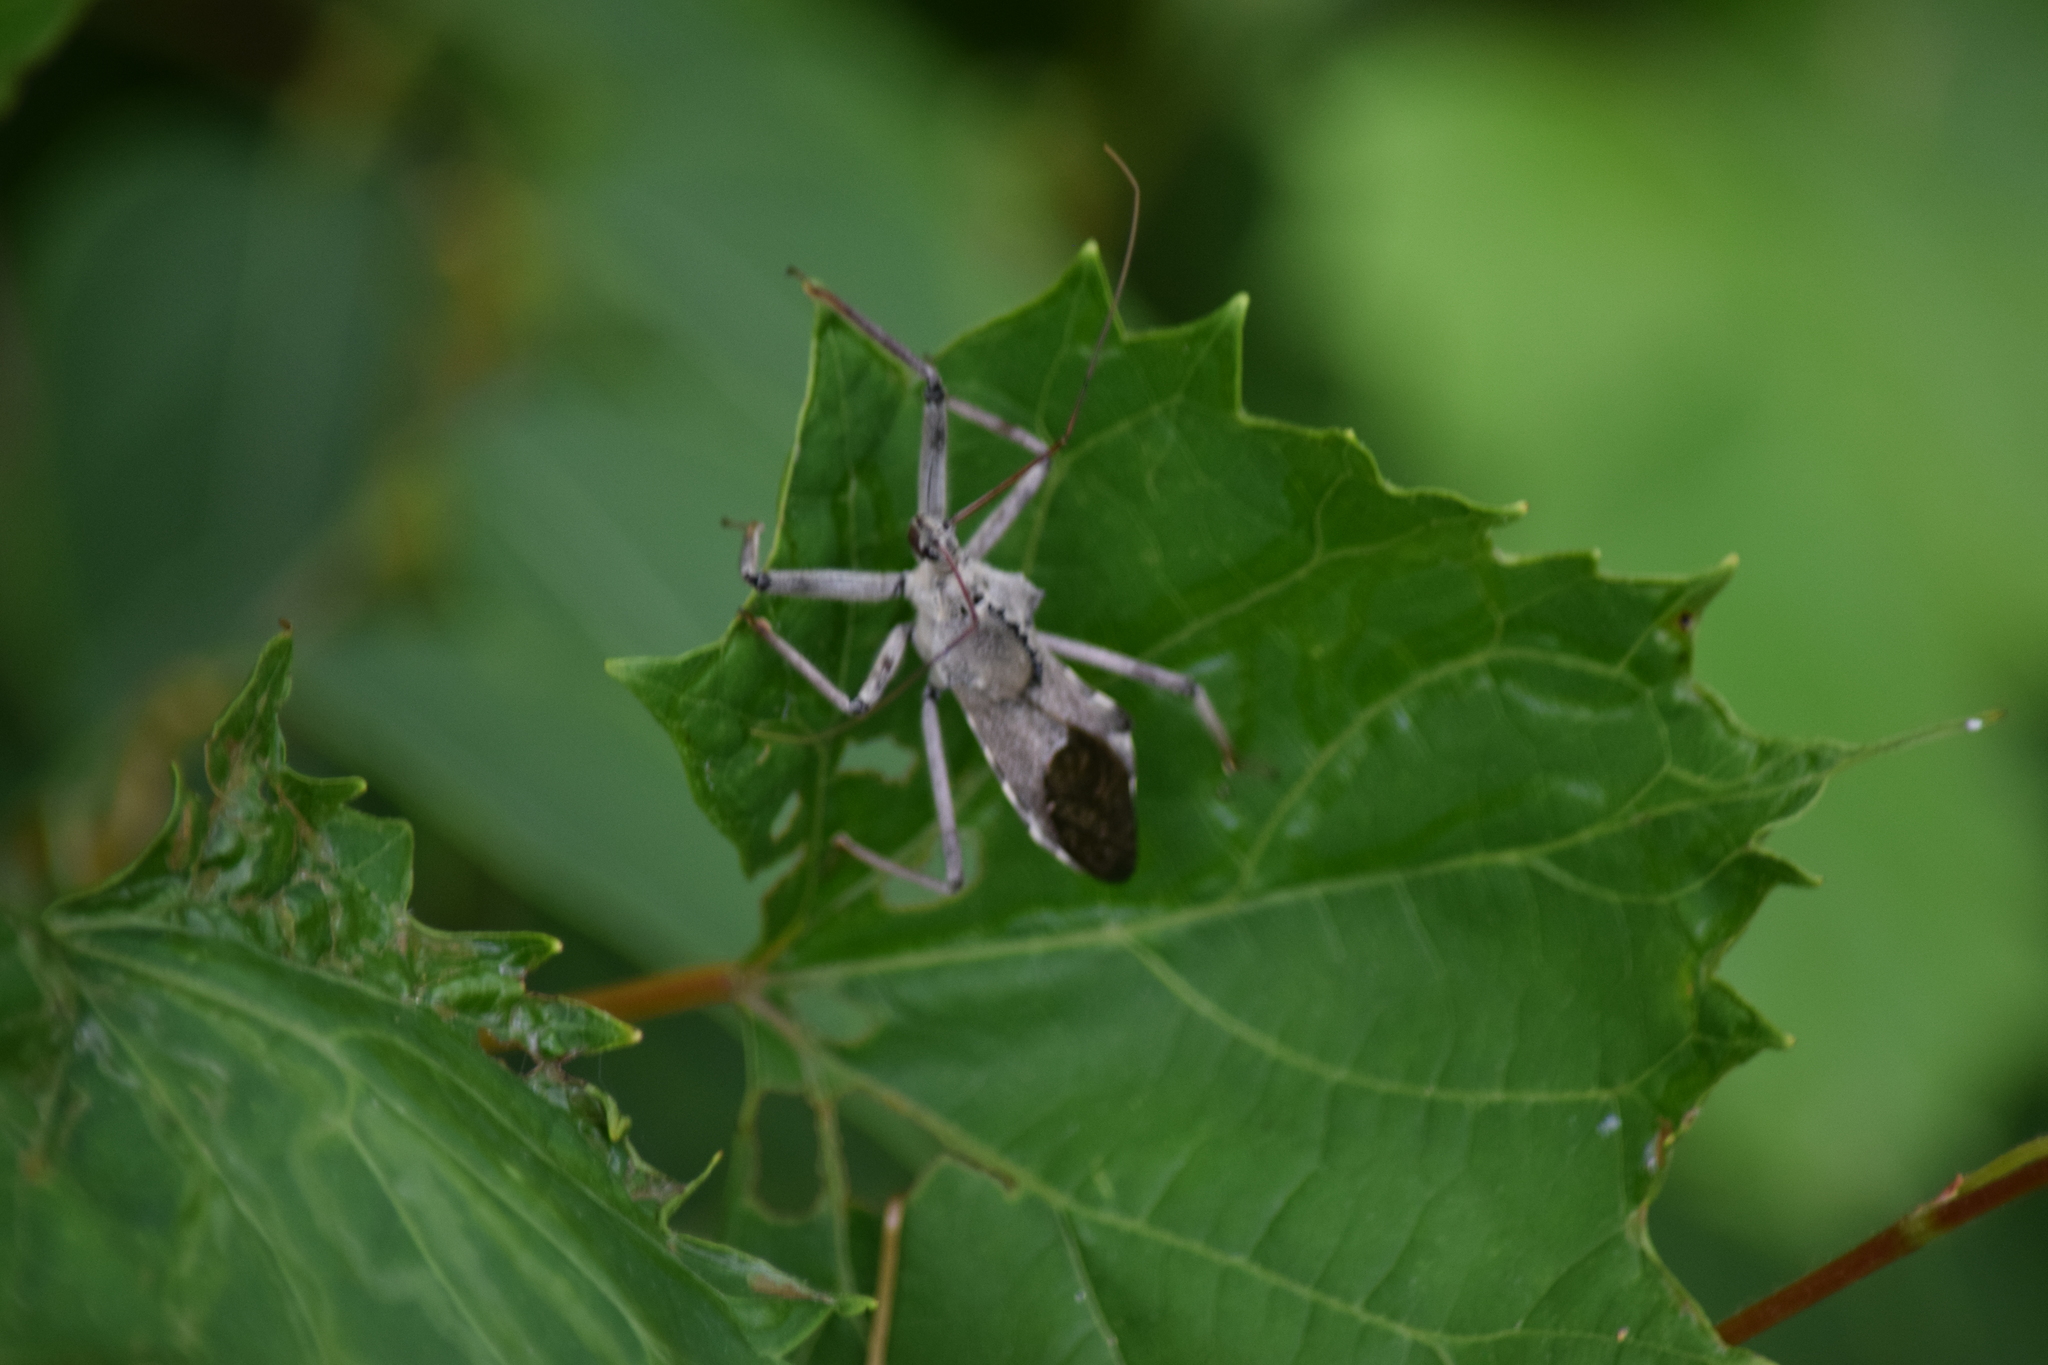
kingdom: Animalia
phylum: Arthropoda
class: Insecta
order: Hemiptera
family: Reduviidae
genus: Arilus
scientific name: Arilus cristatus
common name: North american wheel bug
